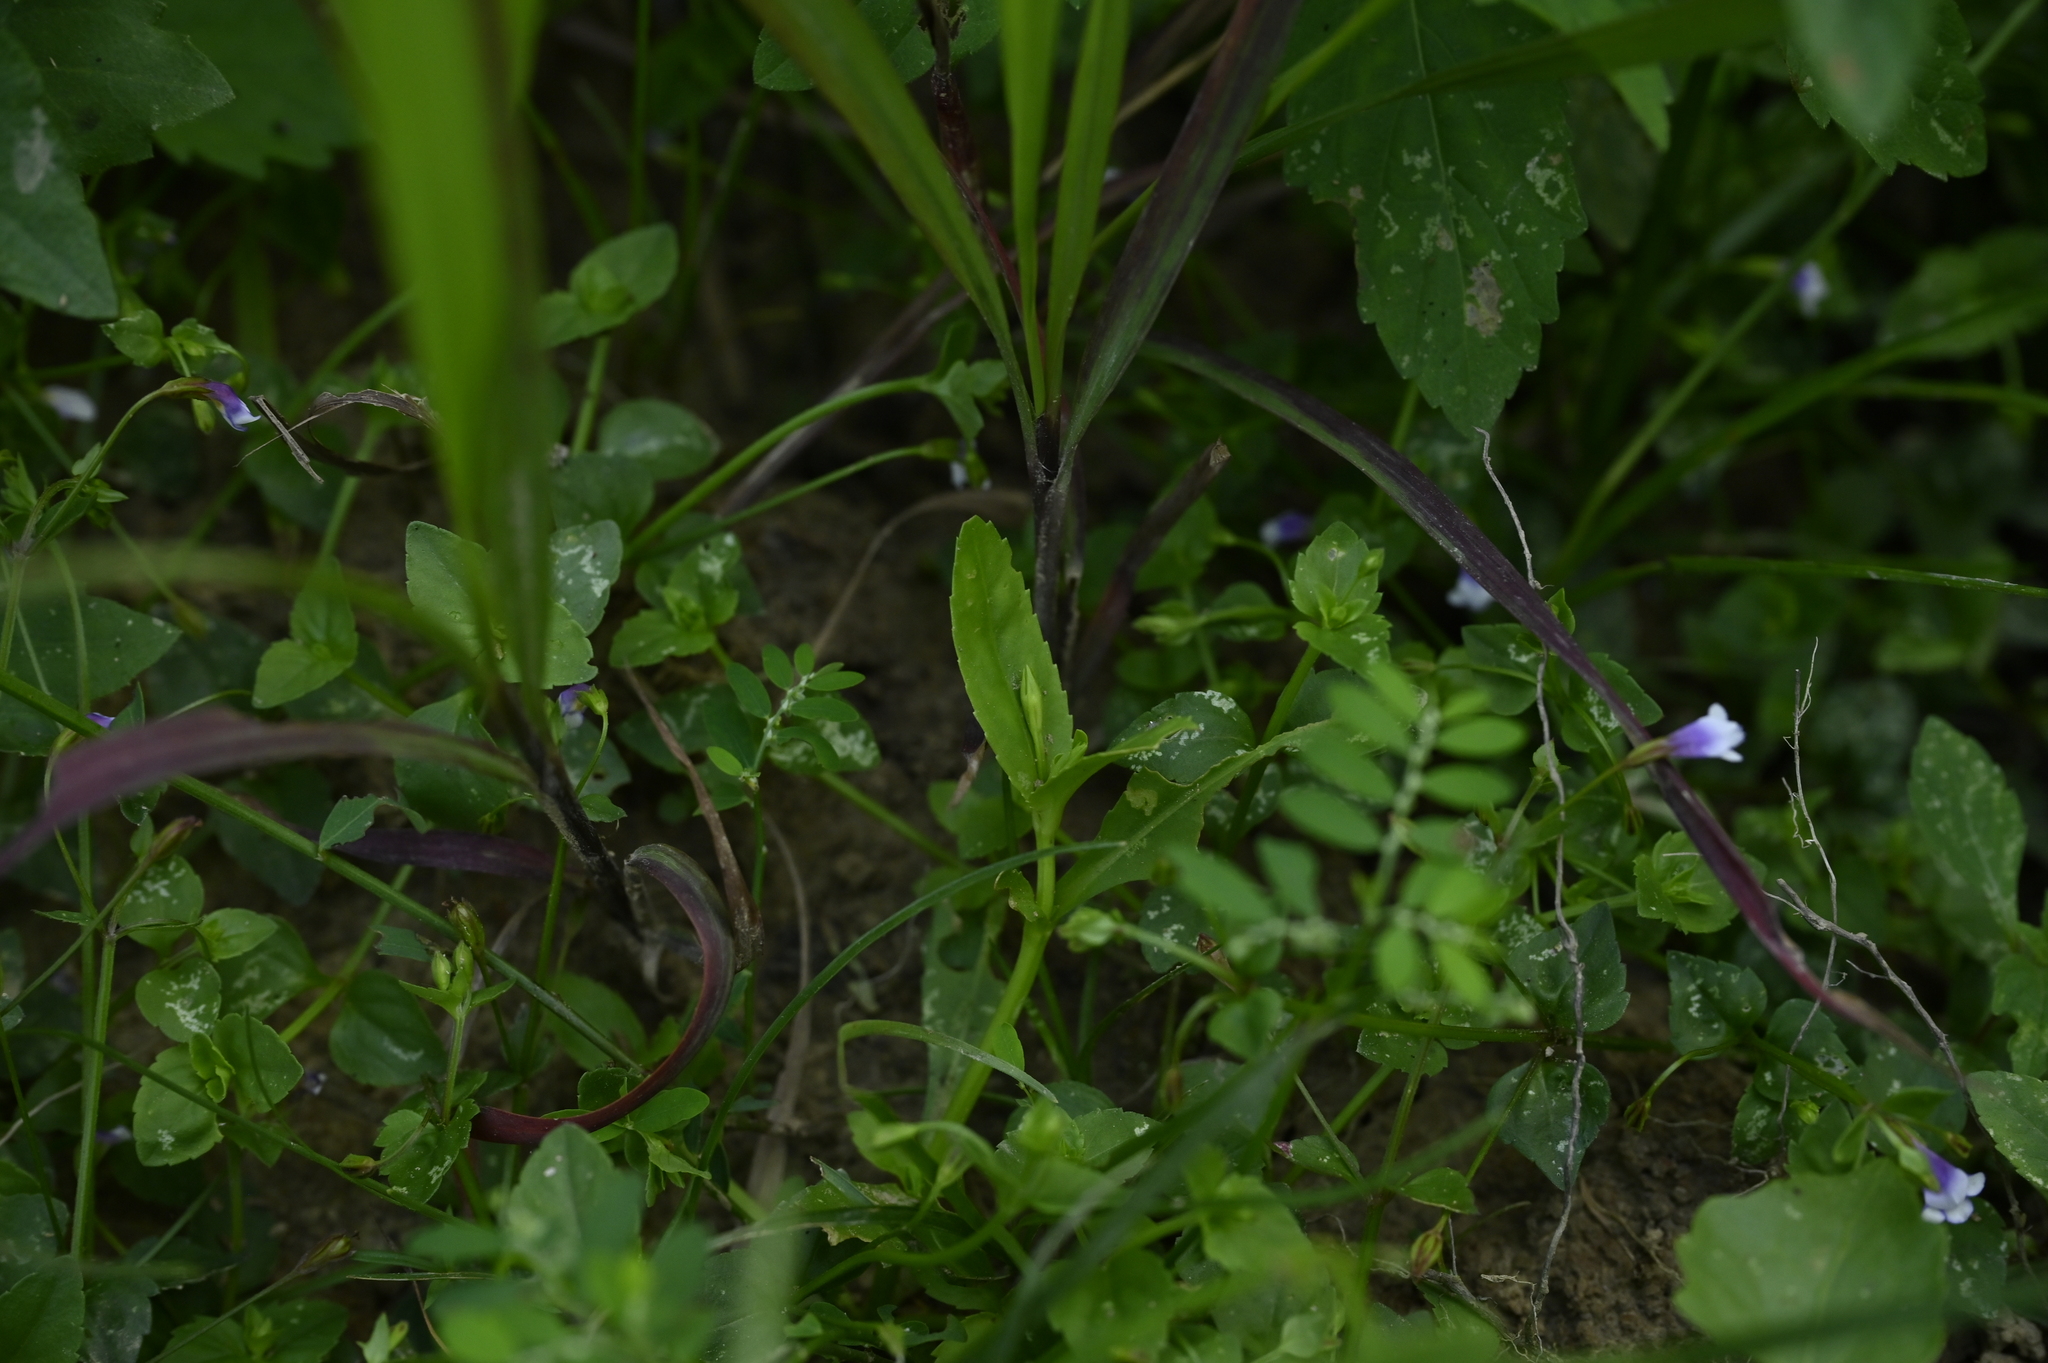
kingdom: Plantae
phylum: Tracheophyta
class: Magnoliopsida
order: Lamiales
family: Linderniaceae
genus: Bonnaya
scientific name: Bonnaya antipoda
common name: Sparrow false pimpernel
